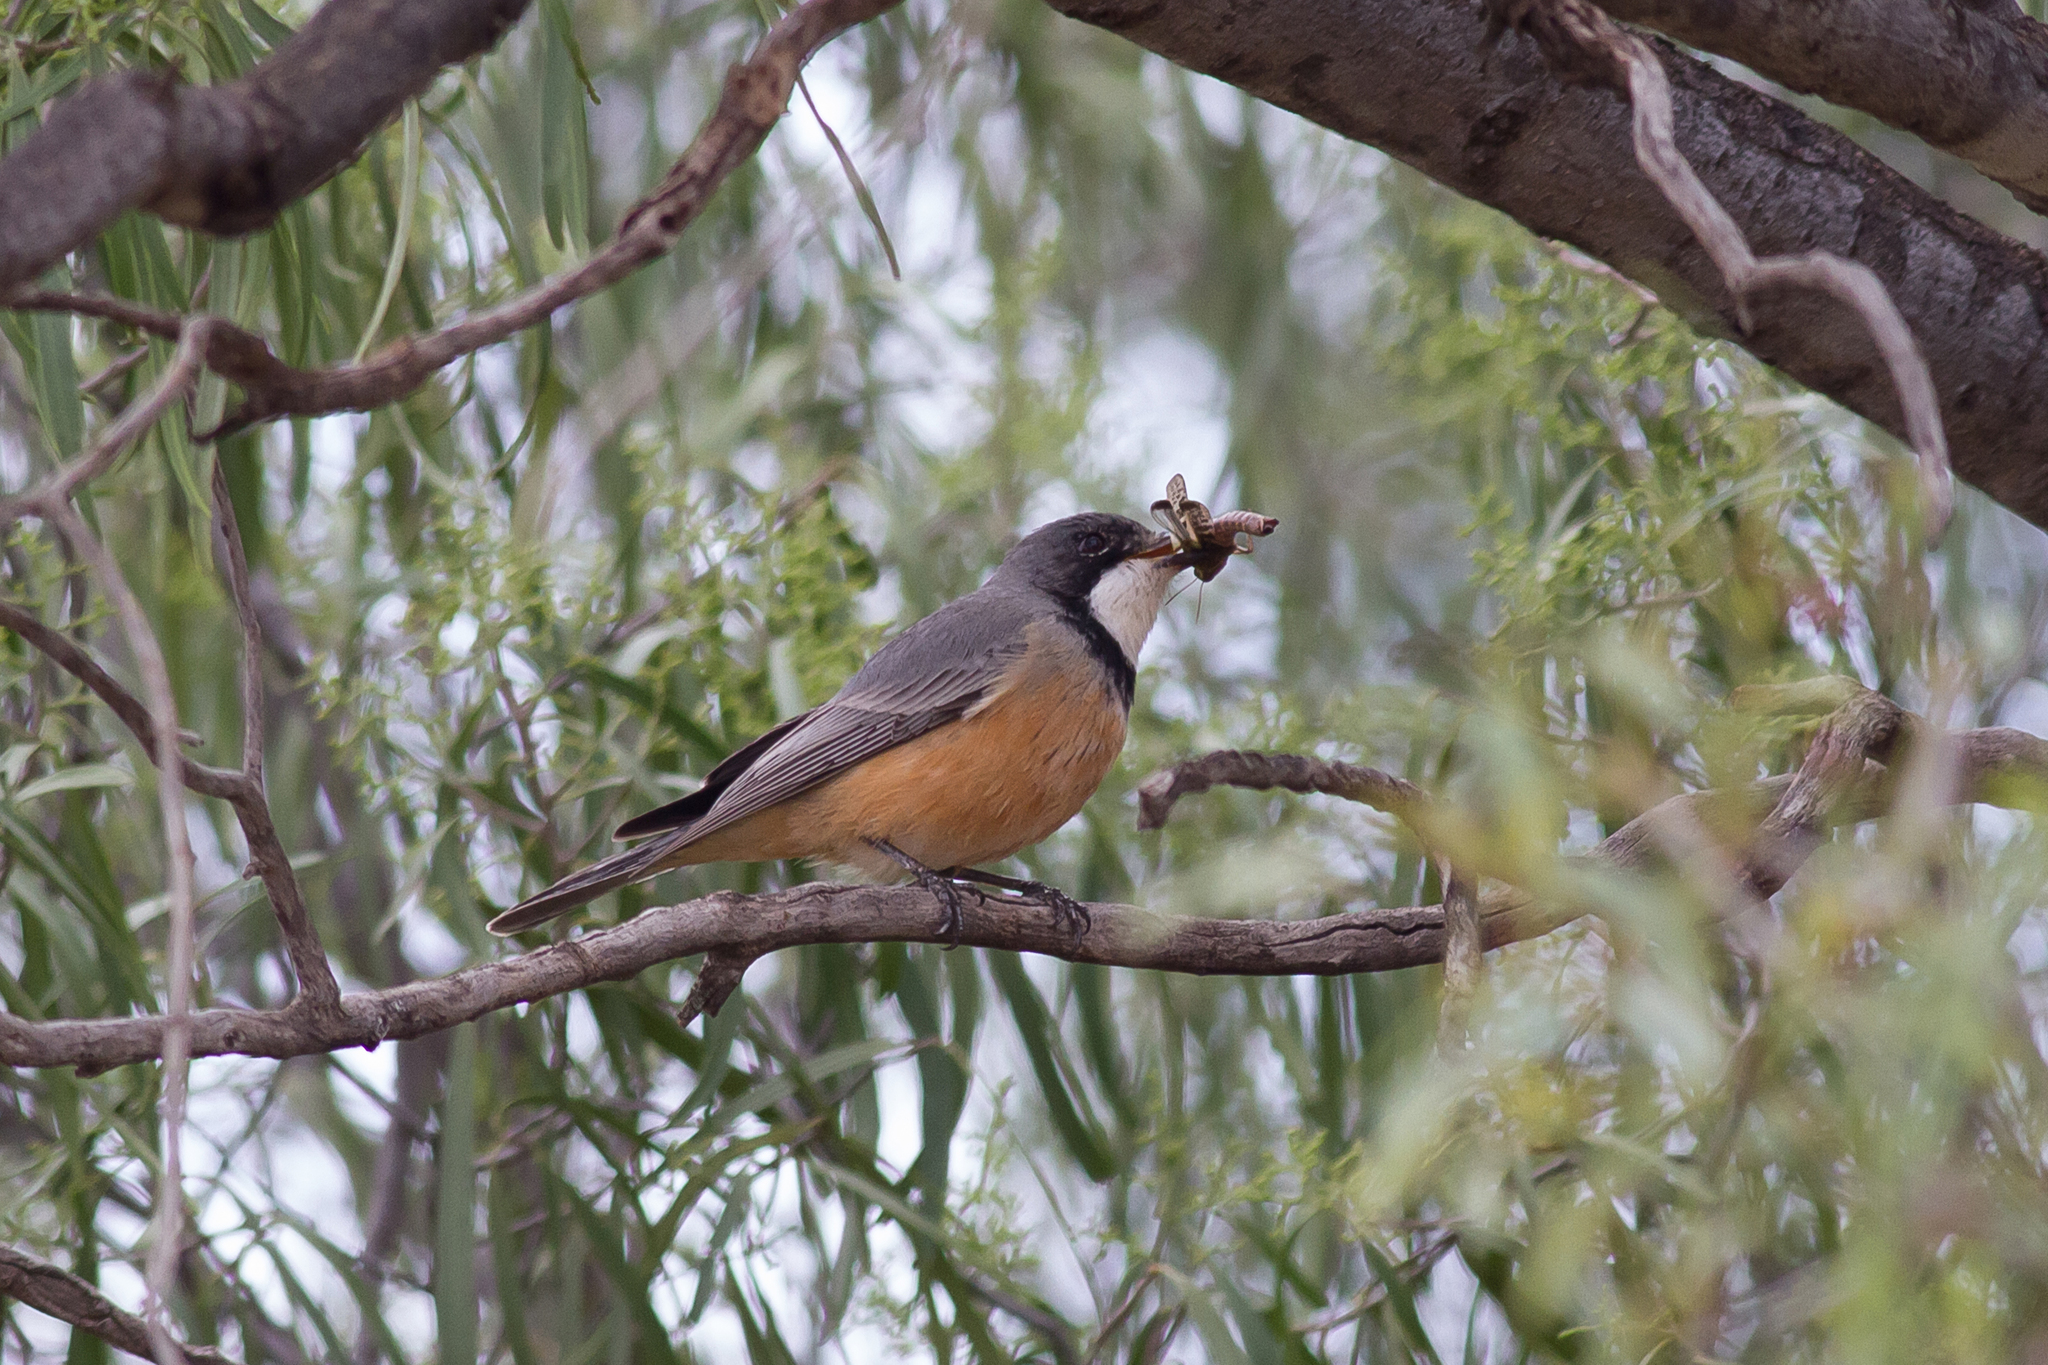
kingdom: Animalia
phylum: Chordata
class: Aves
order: Passeriformes
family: Pachycephalidae
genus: Pachycephala
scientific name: Pachycephala rufiventris
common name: Rufous whistler
